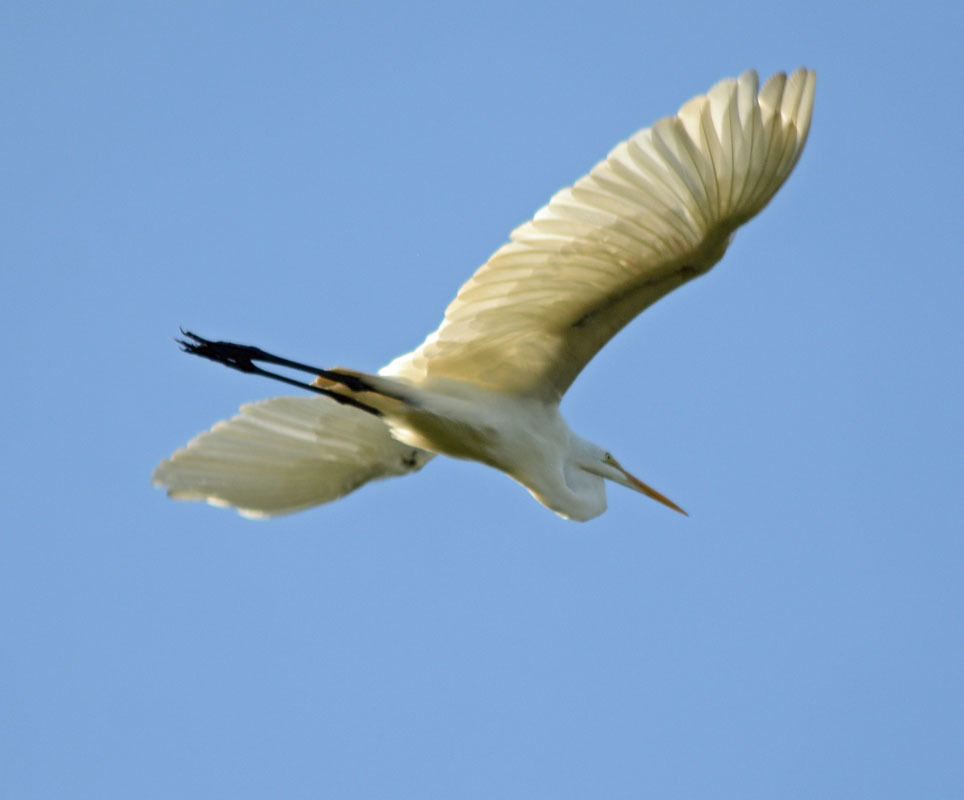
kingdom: Animalia
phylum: Chordata
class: Aves
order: Pelecaniformes
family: Ardeidae
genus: Ardea
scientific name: Ardea alba
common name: Great egret
